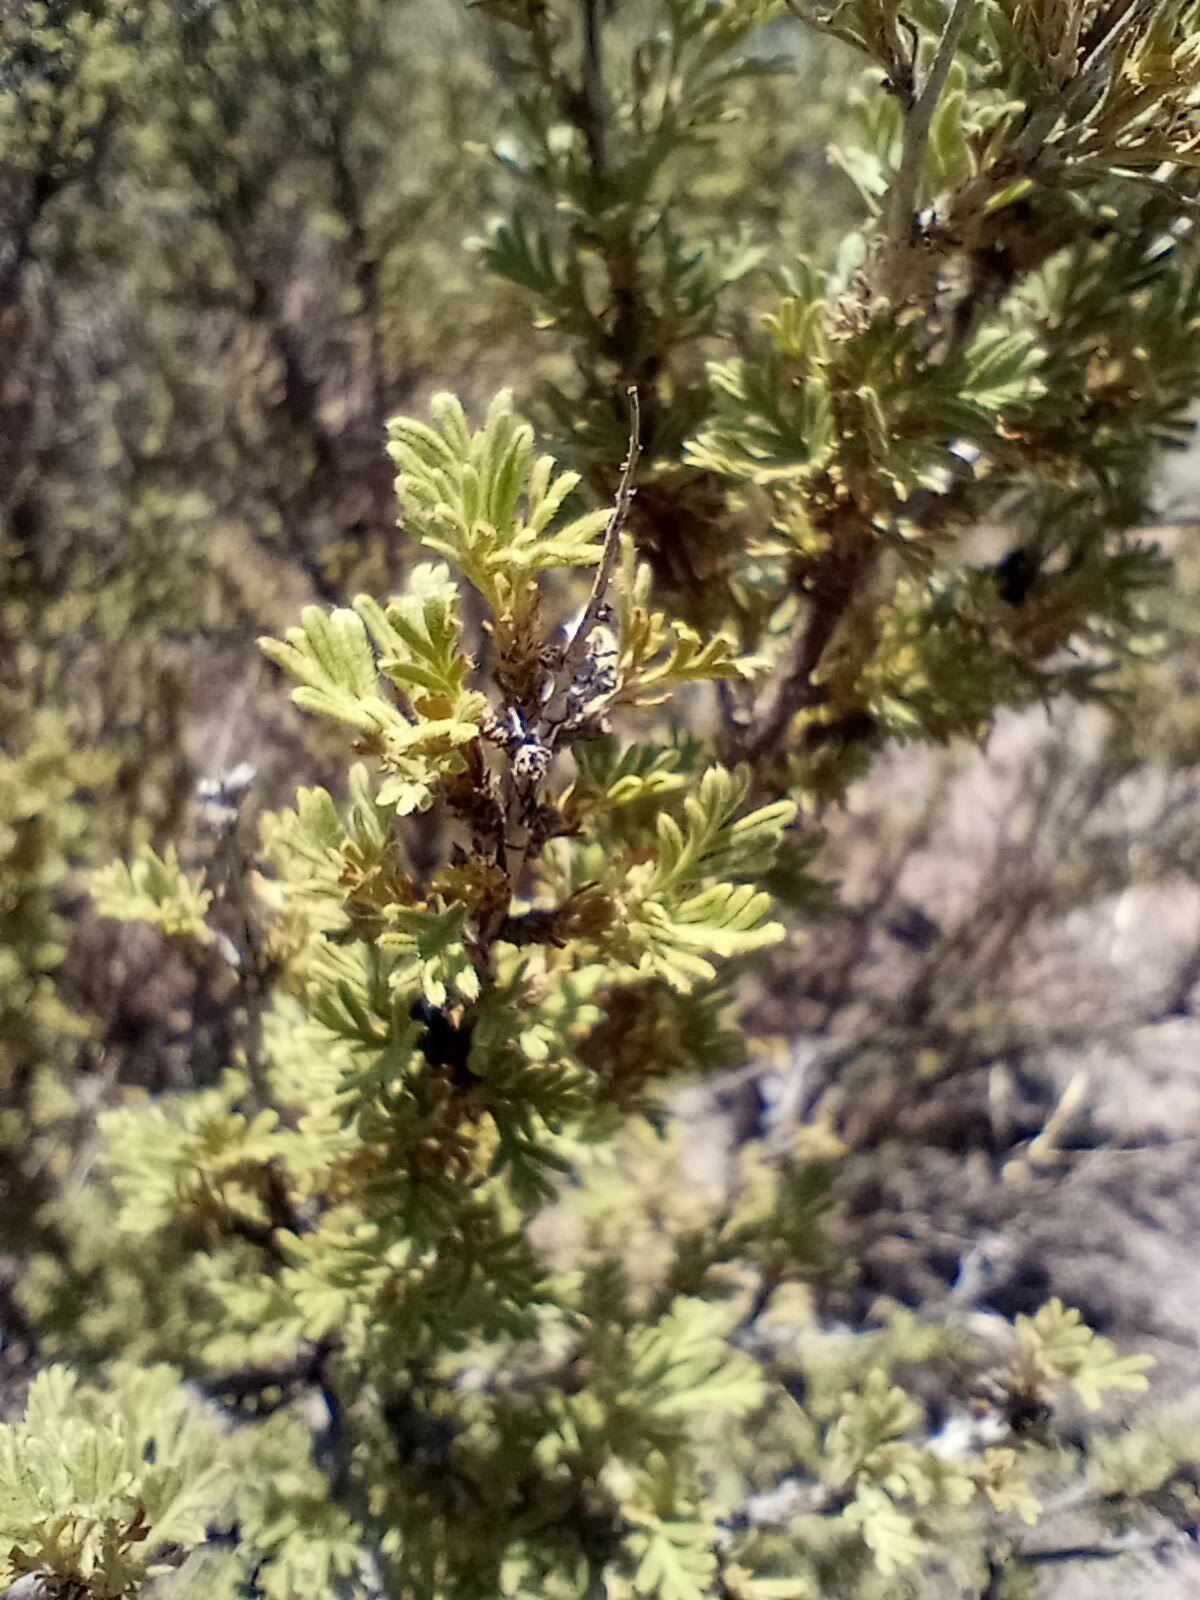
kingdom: Plantae
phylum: Tracheophyta
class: Magnoliopsida
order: Rosales
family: Rosaceae
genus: Fallugia
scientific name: Fallugia paradoxa
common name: Apache-plume
